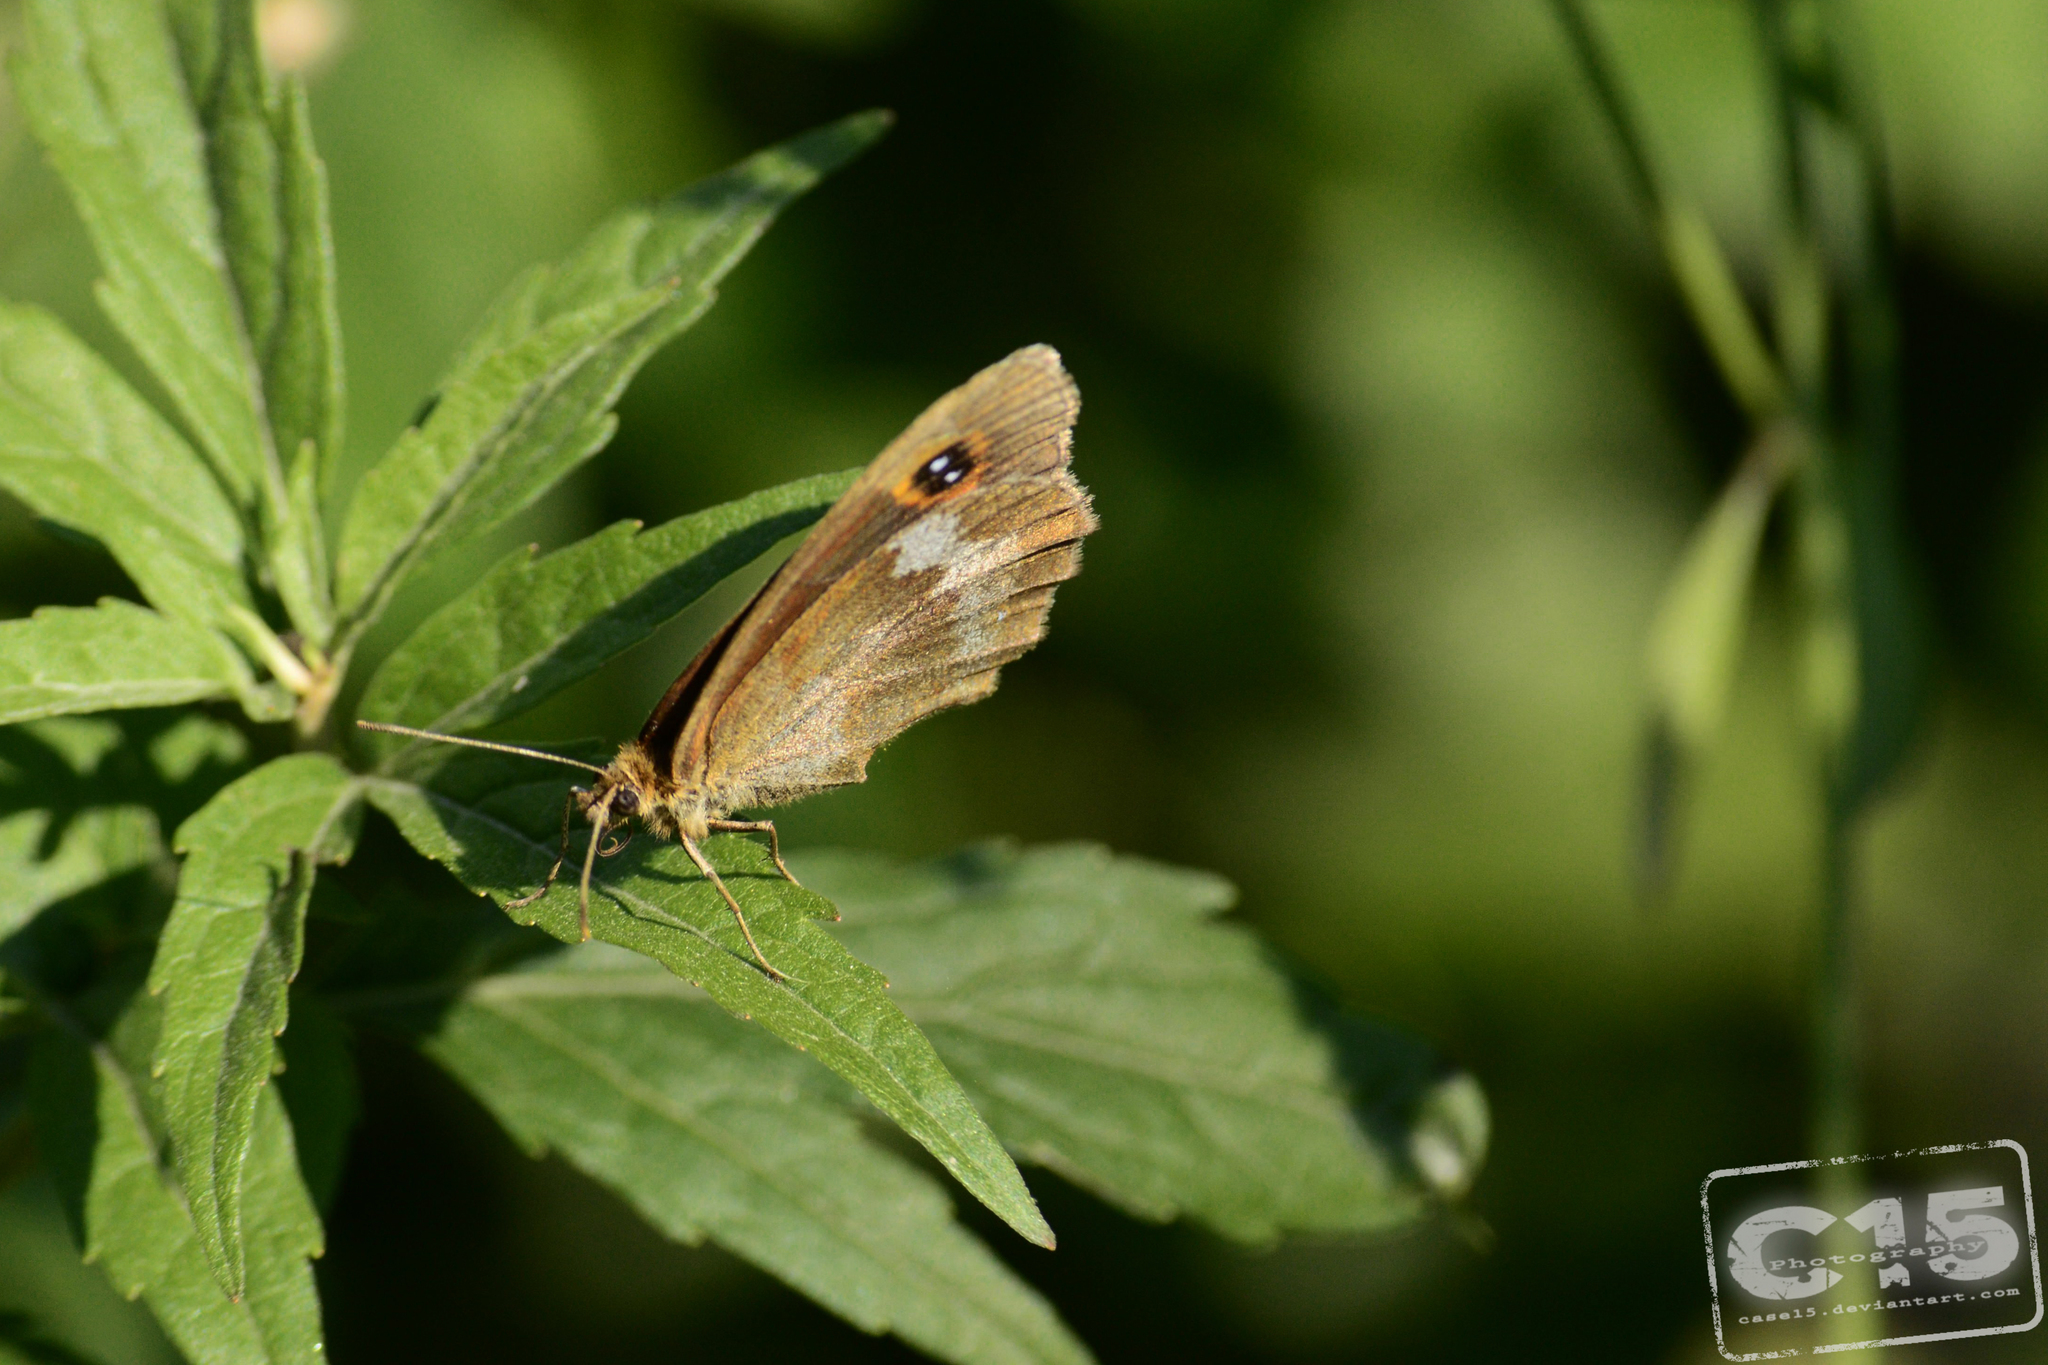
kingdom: Animalia
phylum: Arthropoda
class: Insecta
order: Lepidoptera
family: Nymphalidae
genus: Maniola
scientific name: Maniola jurtina
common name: Meadow brown
